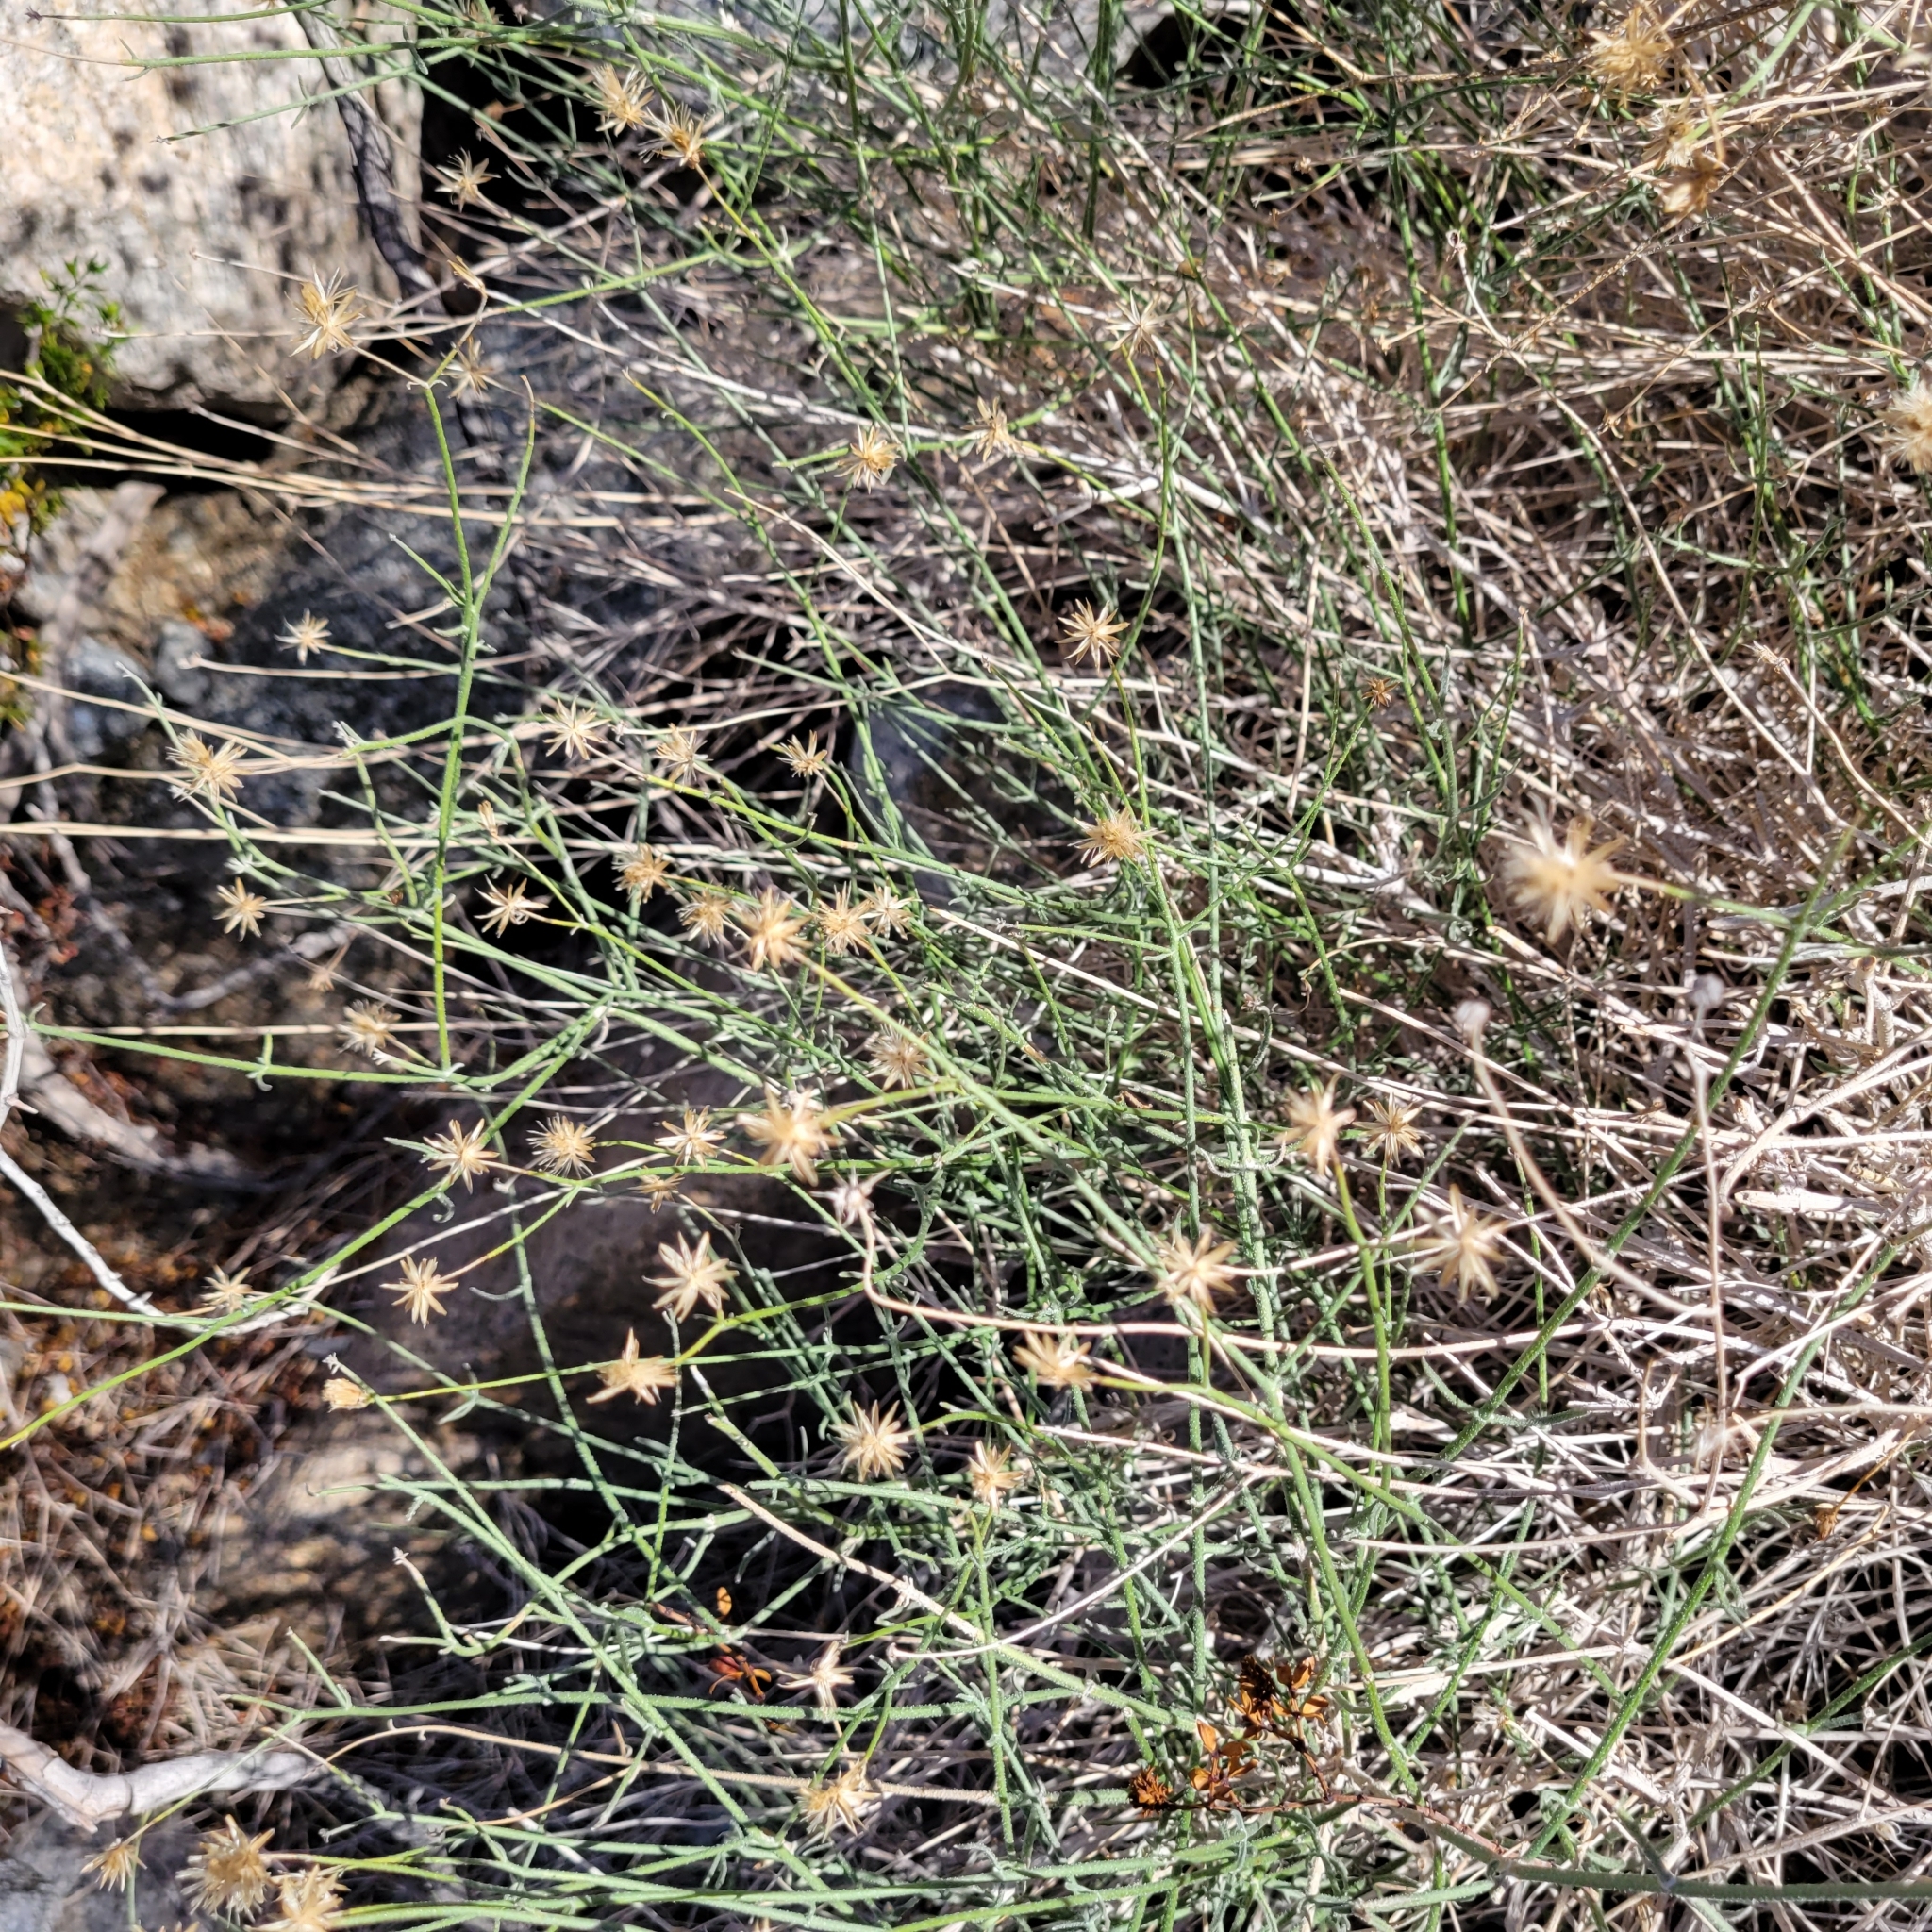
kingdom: Plantae
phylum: Tracheophyta
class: Magnoliopsida
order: Asterales
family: Asteraceae
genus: Bebbia
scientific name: Bebbia juncea
